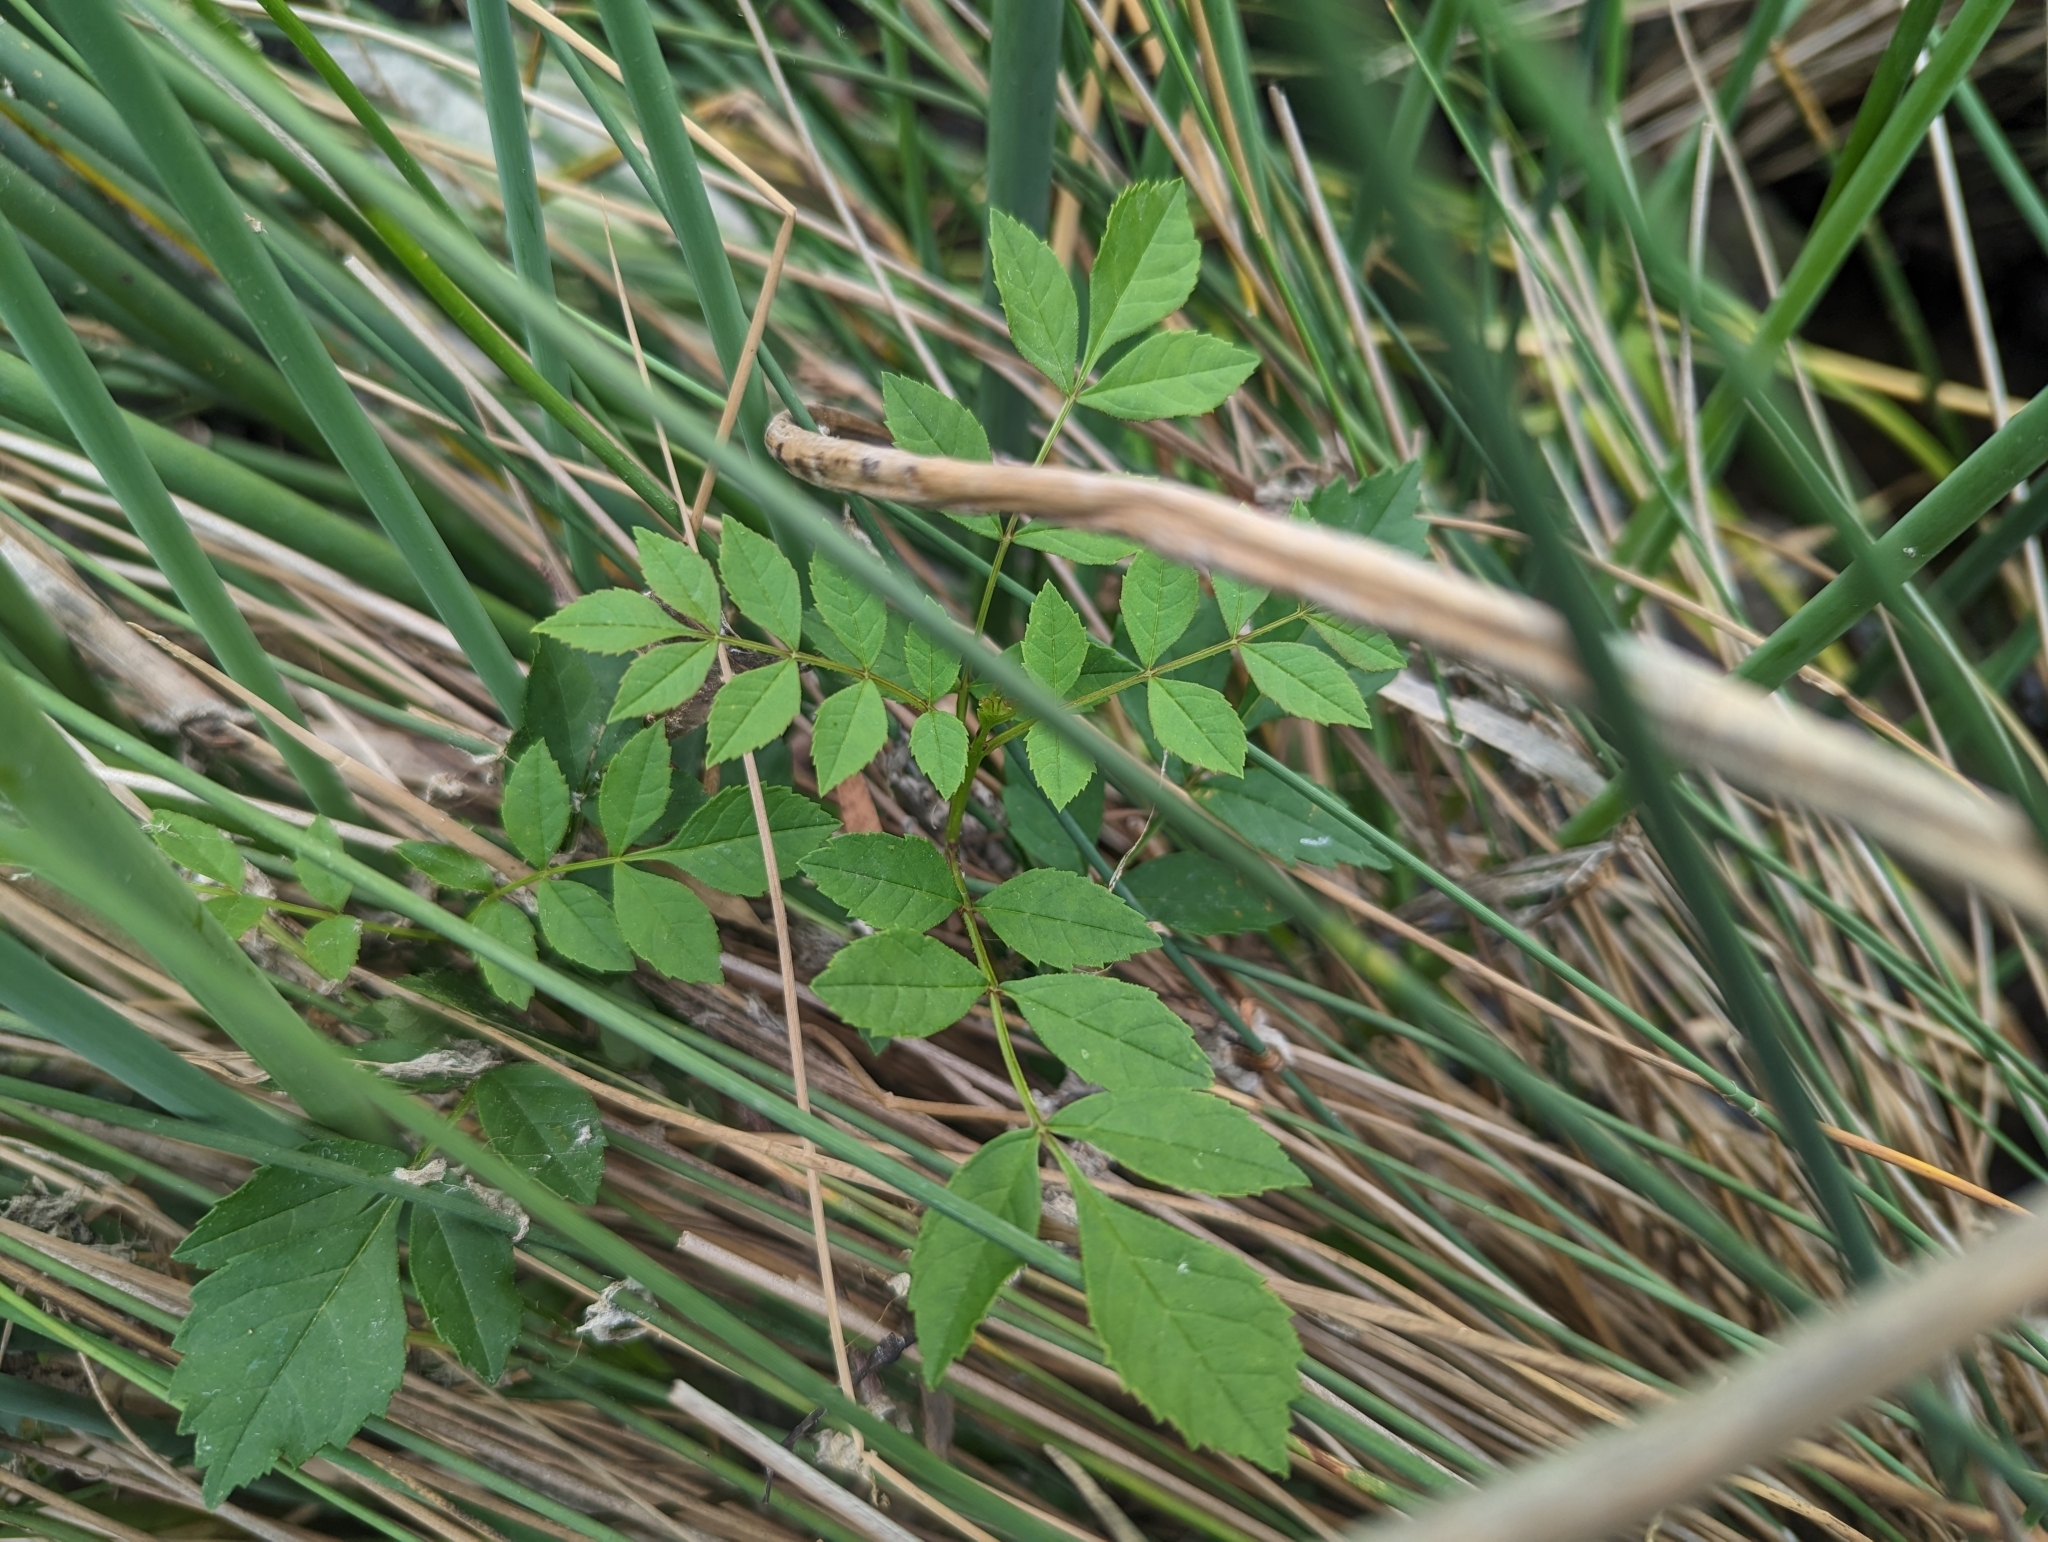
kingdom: Plantae
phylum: Tracheophyta
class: Magnoliopsida
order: Lamiales
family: Oleaceae
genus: Fraxinus
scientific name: Fraxinus angustifolia
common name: Narrow-leafed ash
